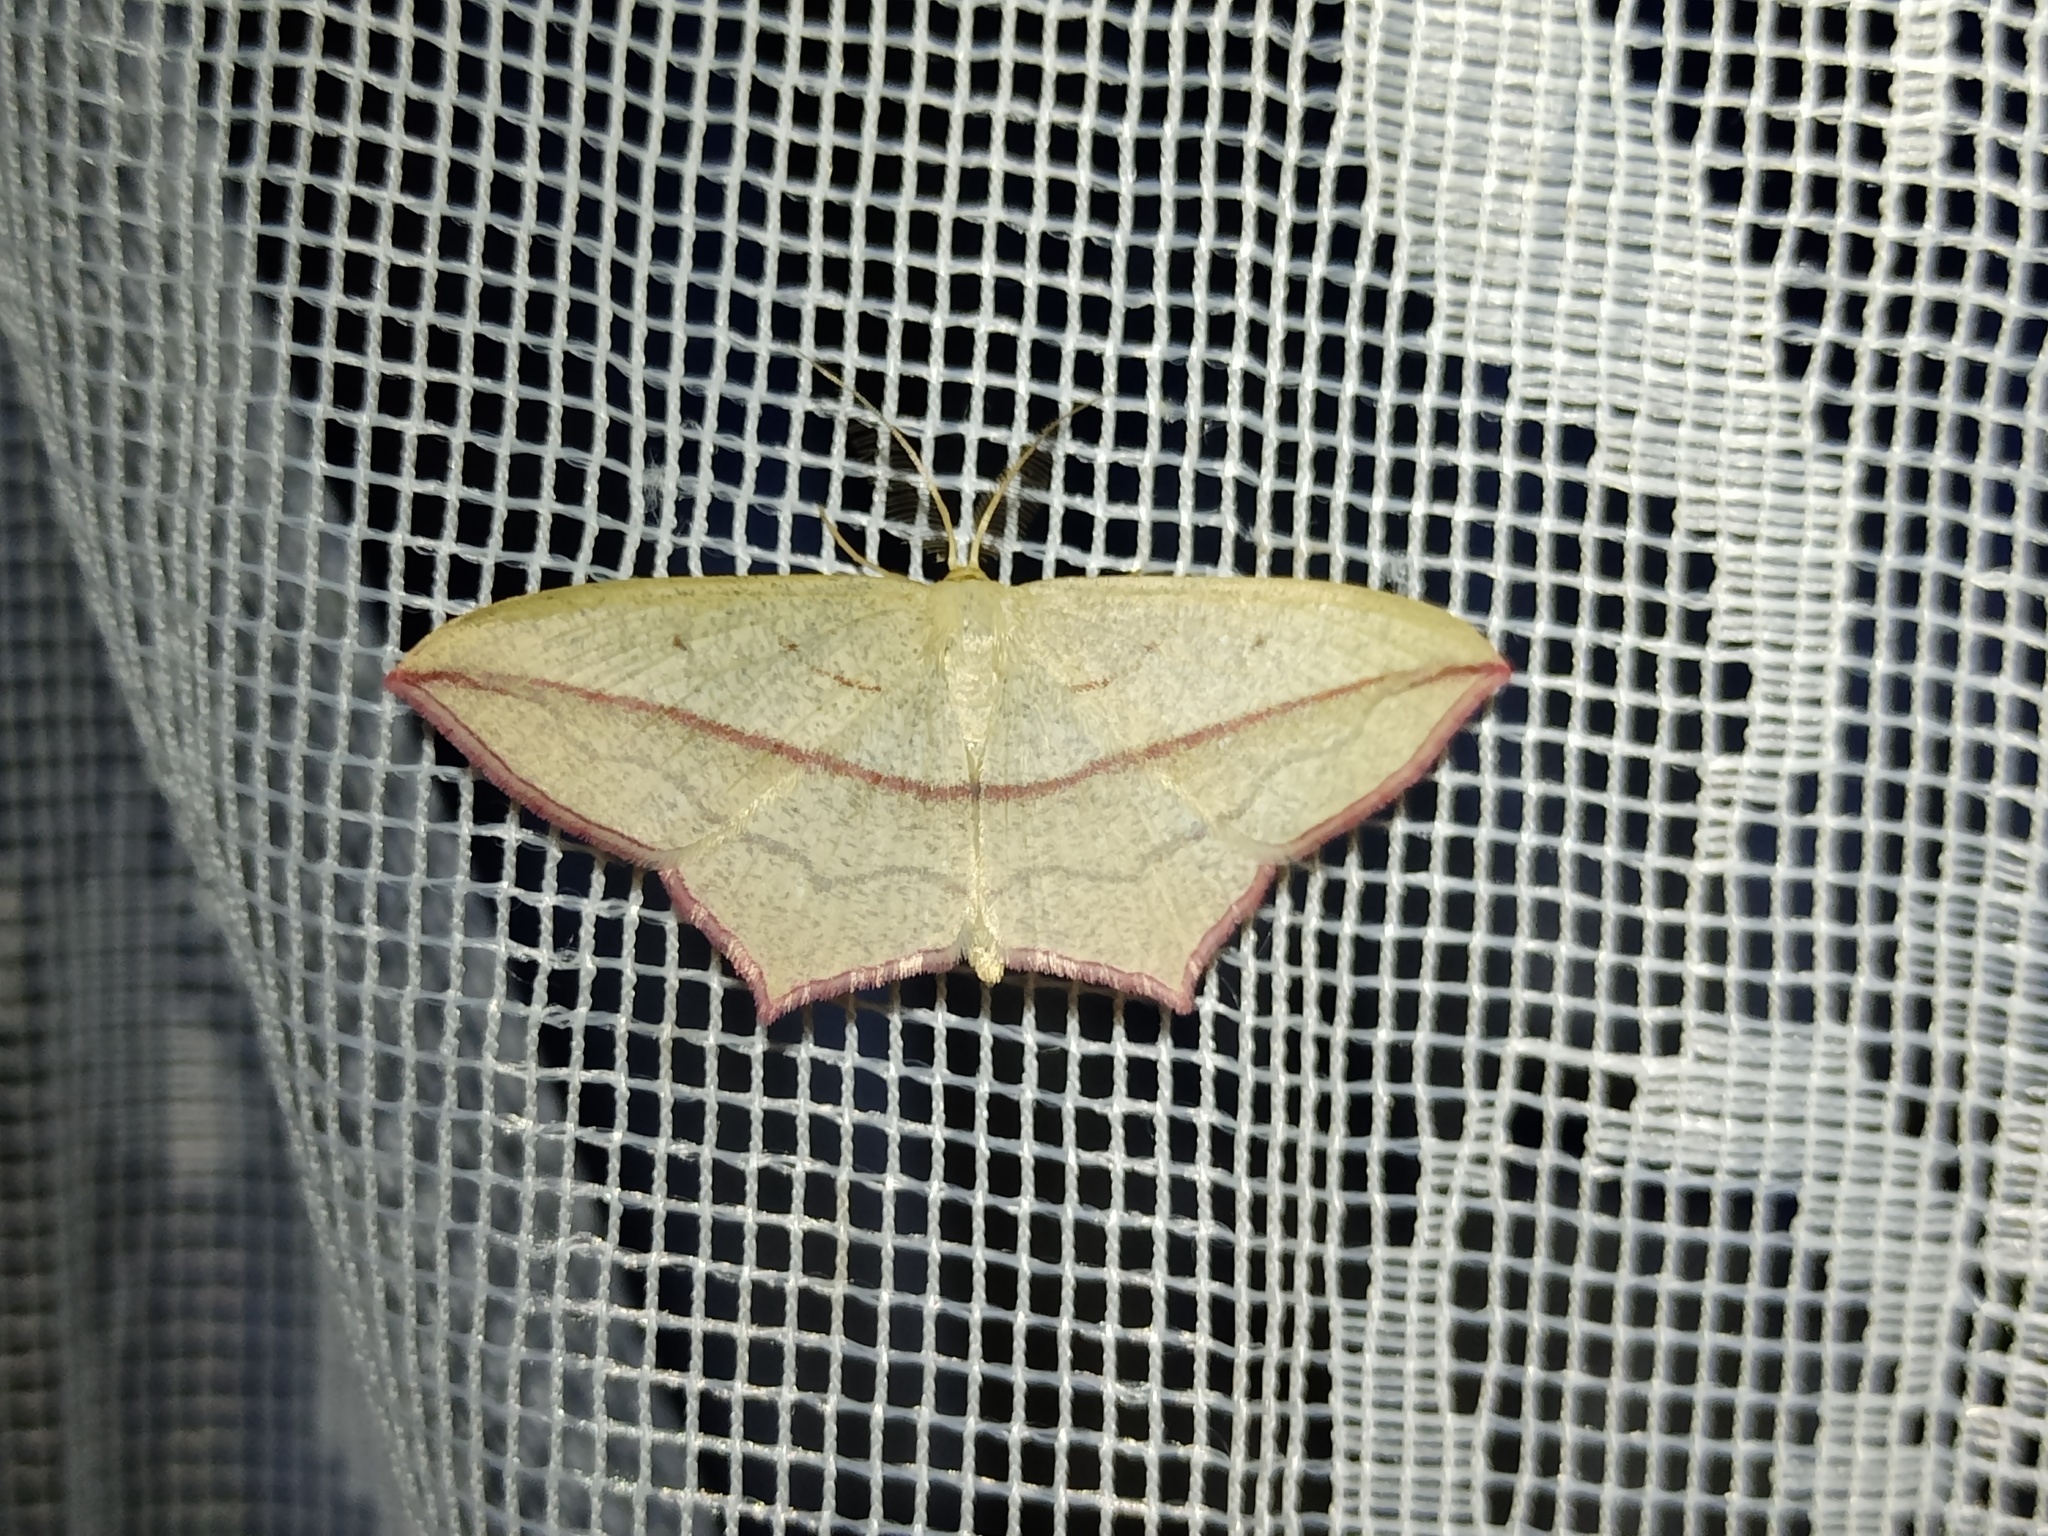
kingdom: Animalia
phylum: Arthropoda
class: Insecta
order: Lepidoptera
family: Geometridae
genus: Timandra
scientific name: Timandra comae
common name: Blood-vein
